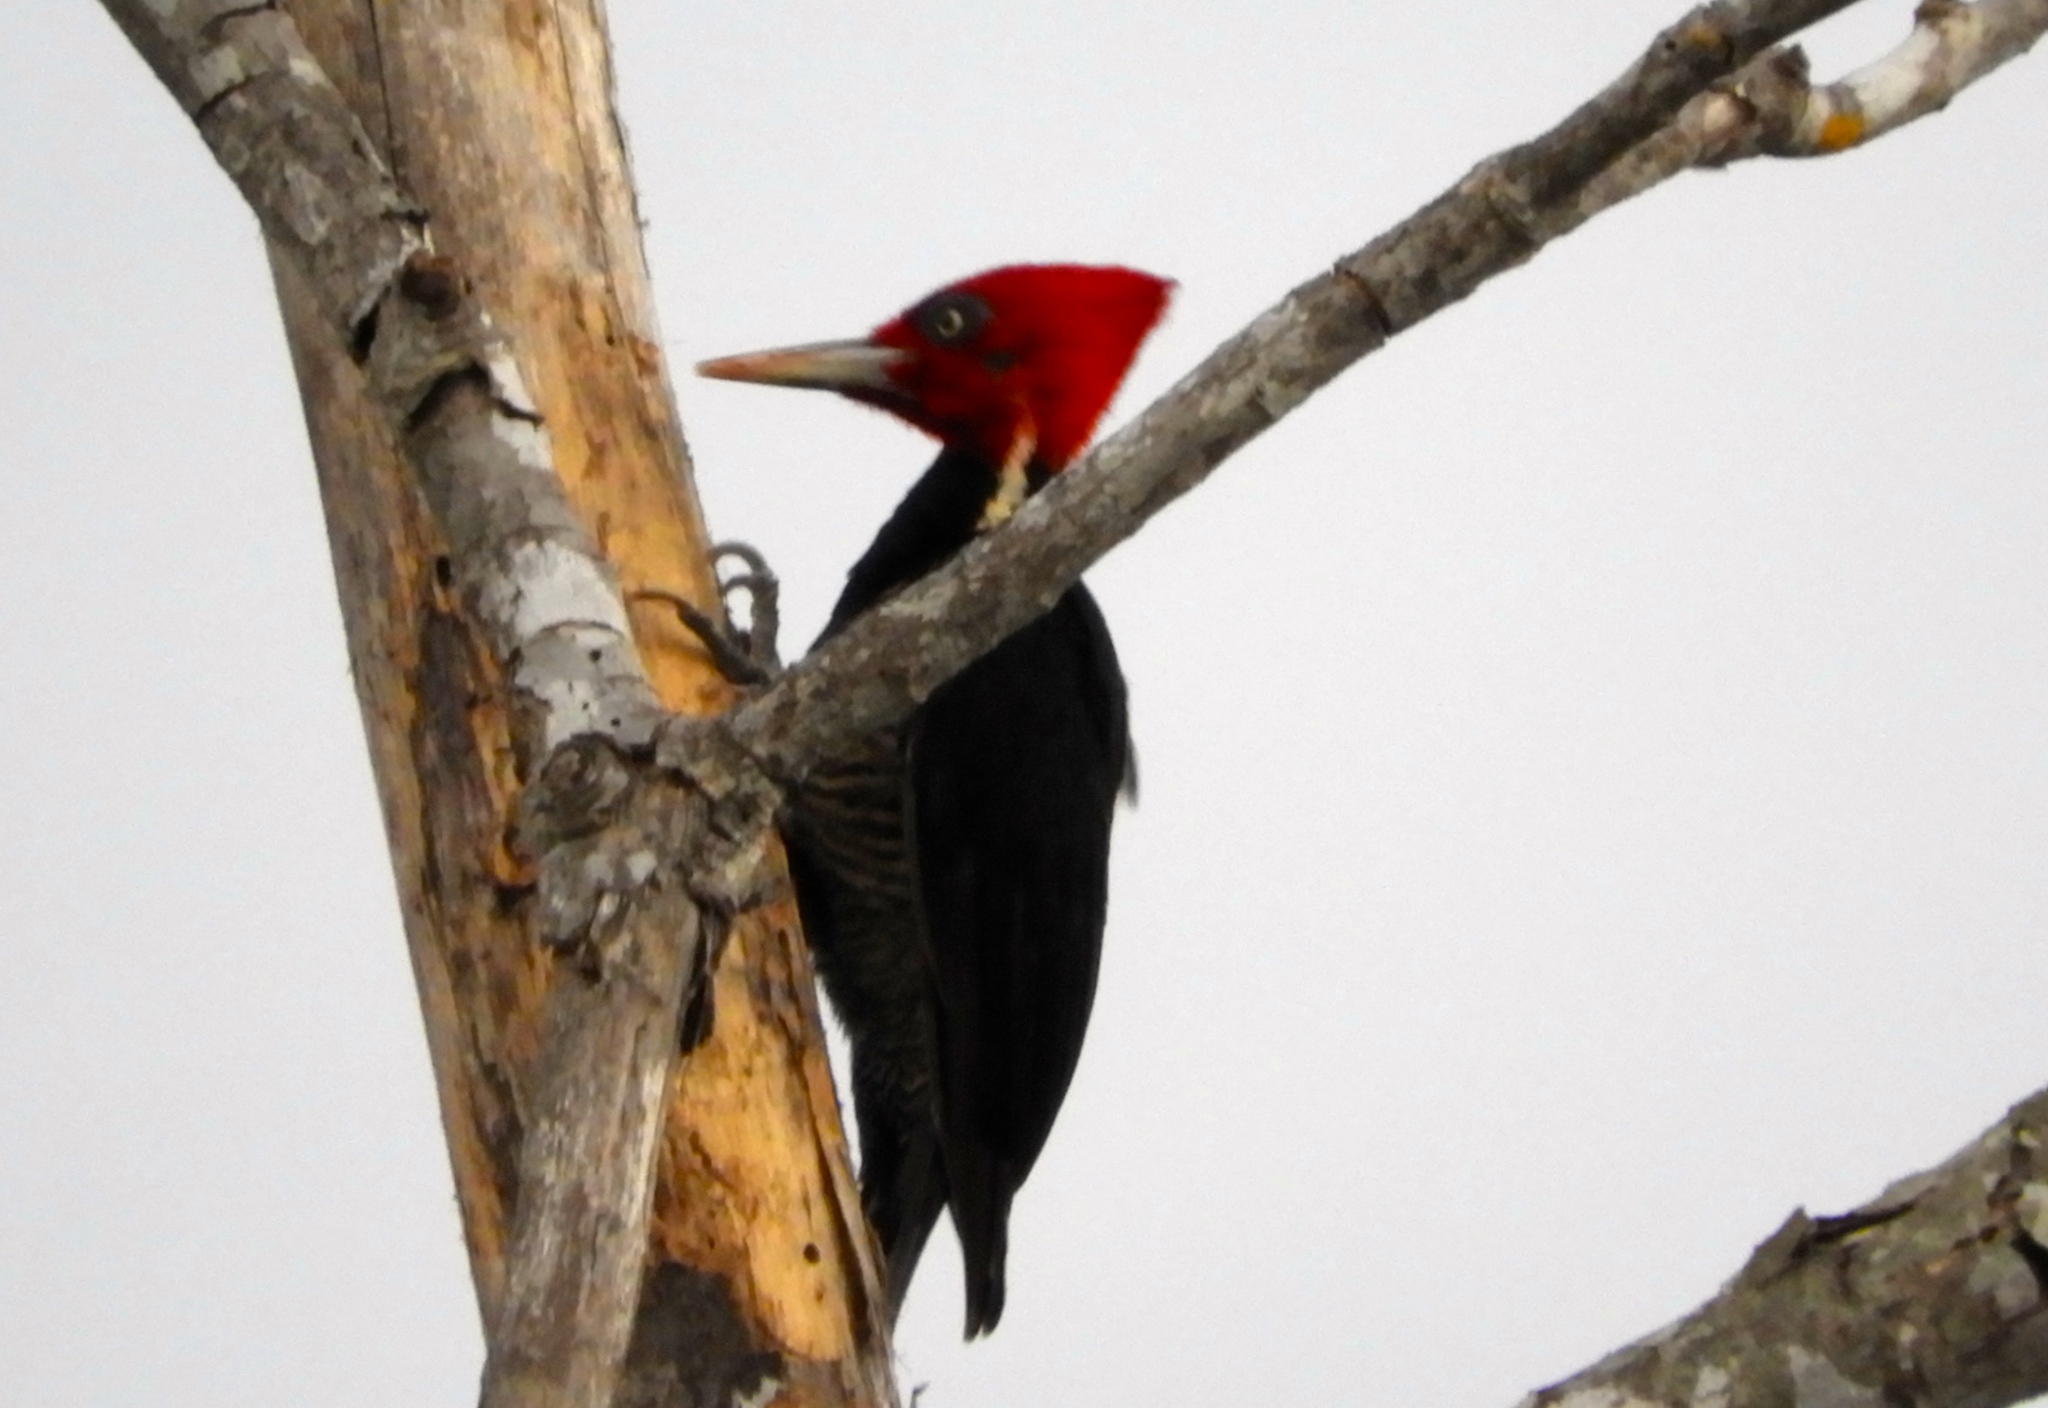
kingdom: Animalia
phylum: Chordata
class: Aves
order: Piciformes
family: Picidae
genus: Campephilus
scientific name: Campephilus guatemalensis
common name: Pale-billed woodpecker
